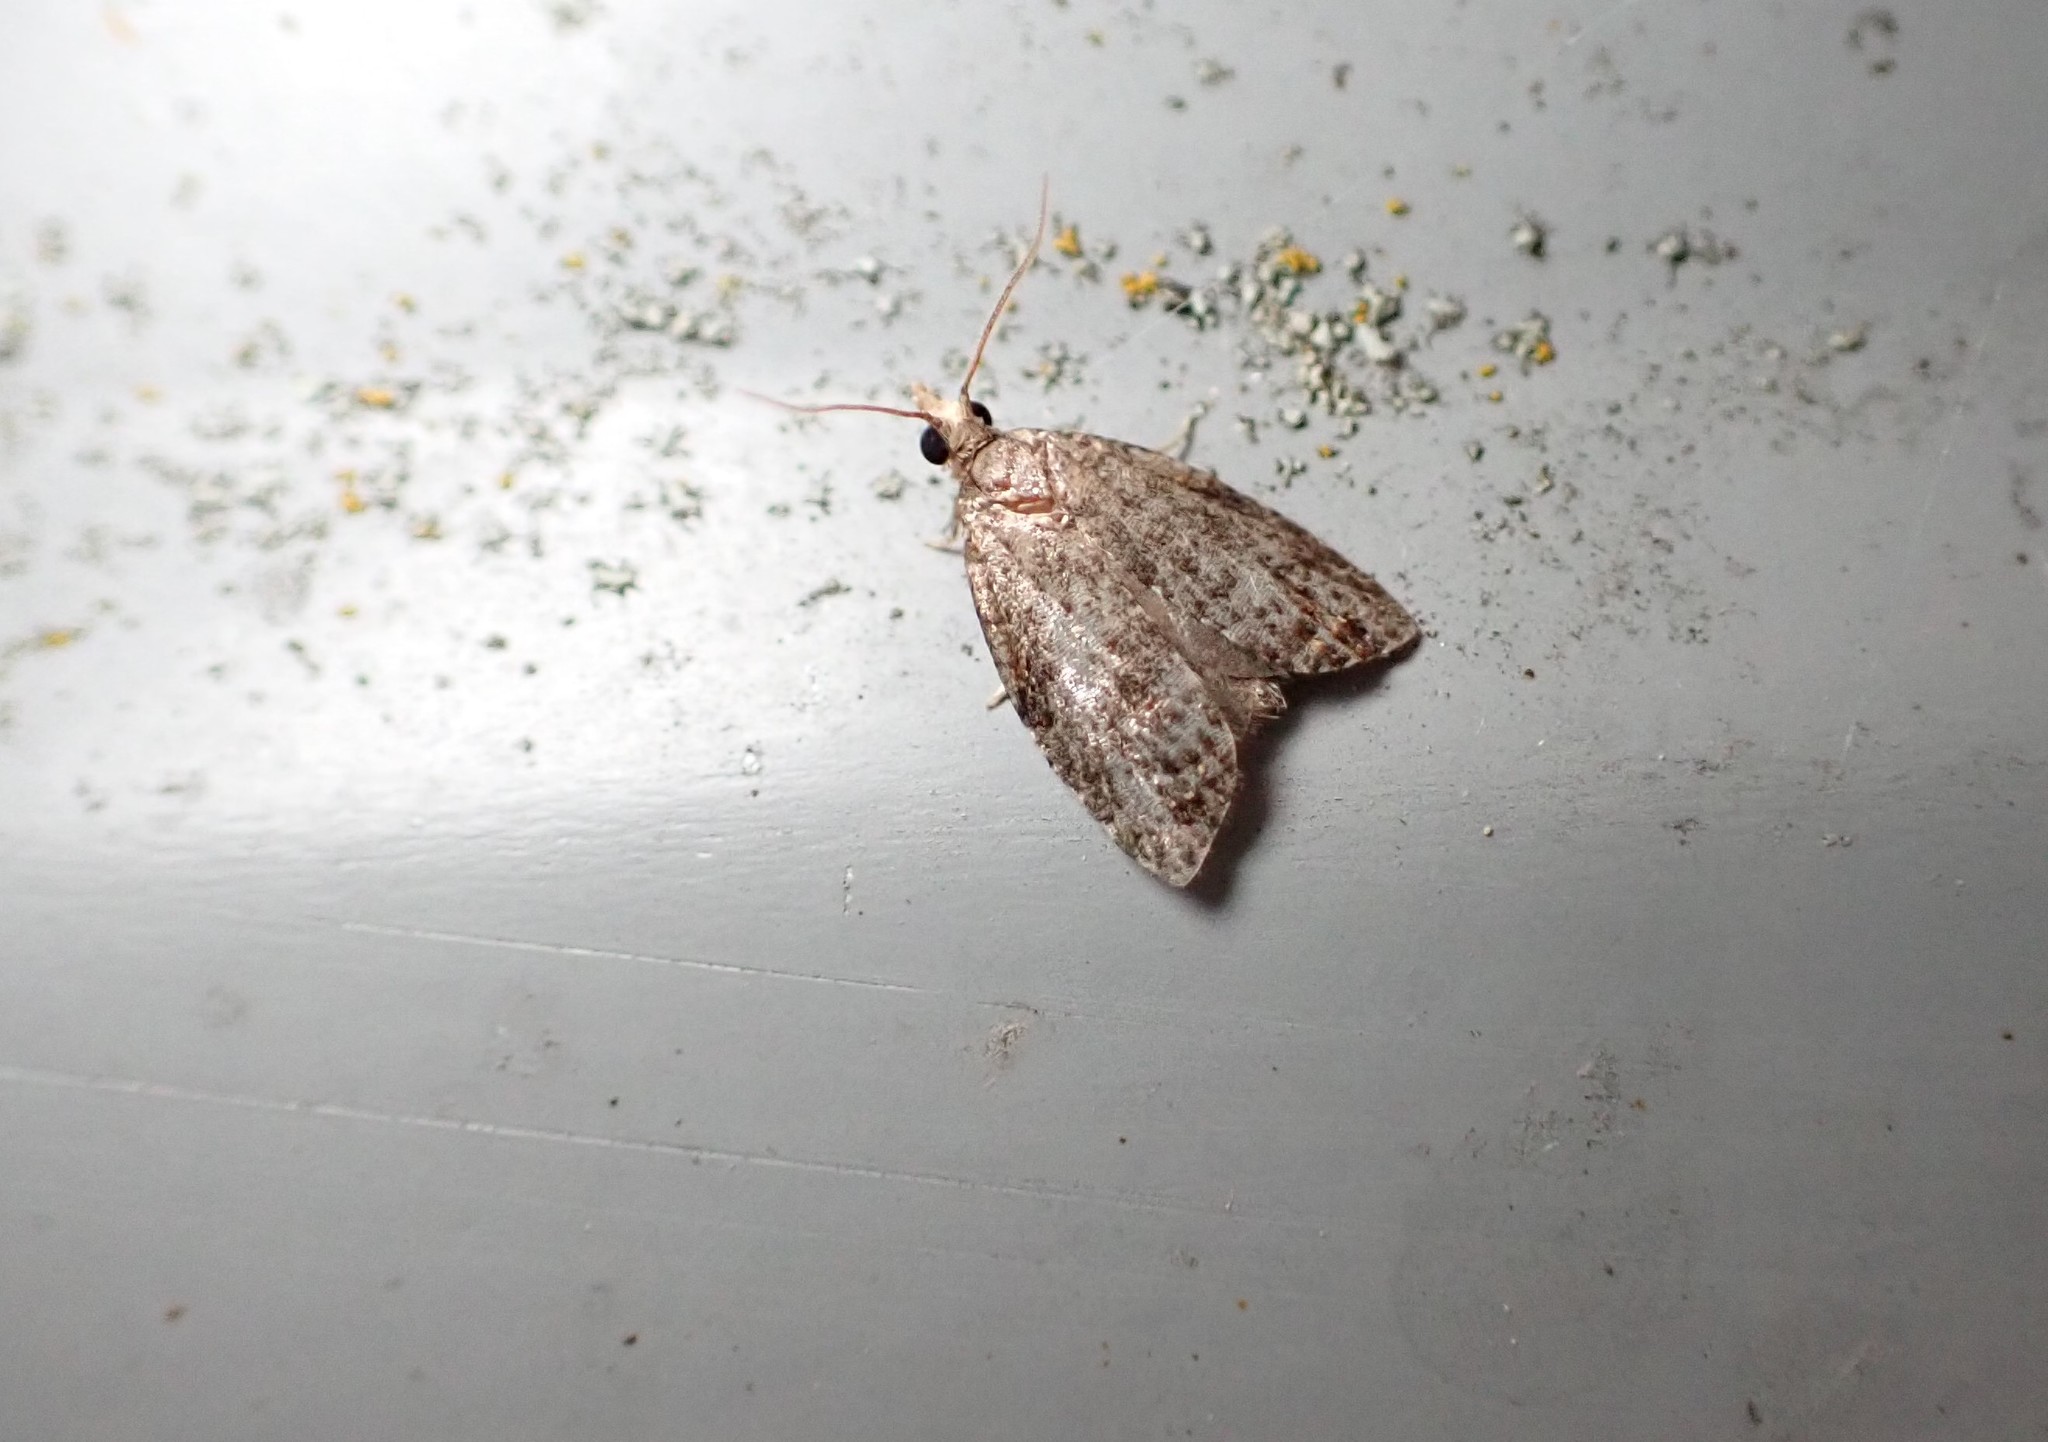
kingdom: Animalia
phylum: Arthropoda
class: Insecta
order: Lepidoptera
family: Tortricidae
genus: Capua
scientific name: Capua intractana
